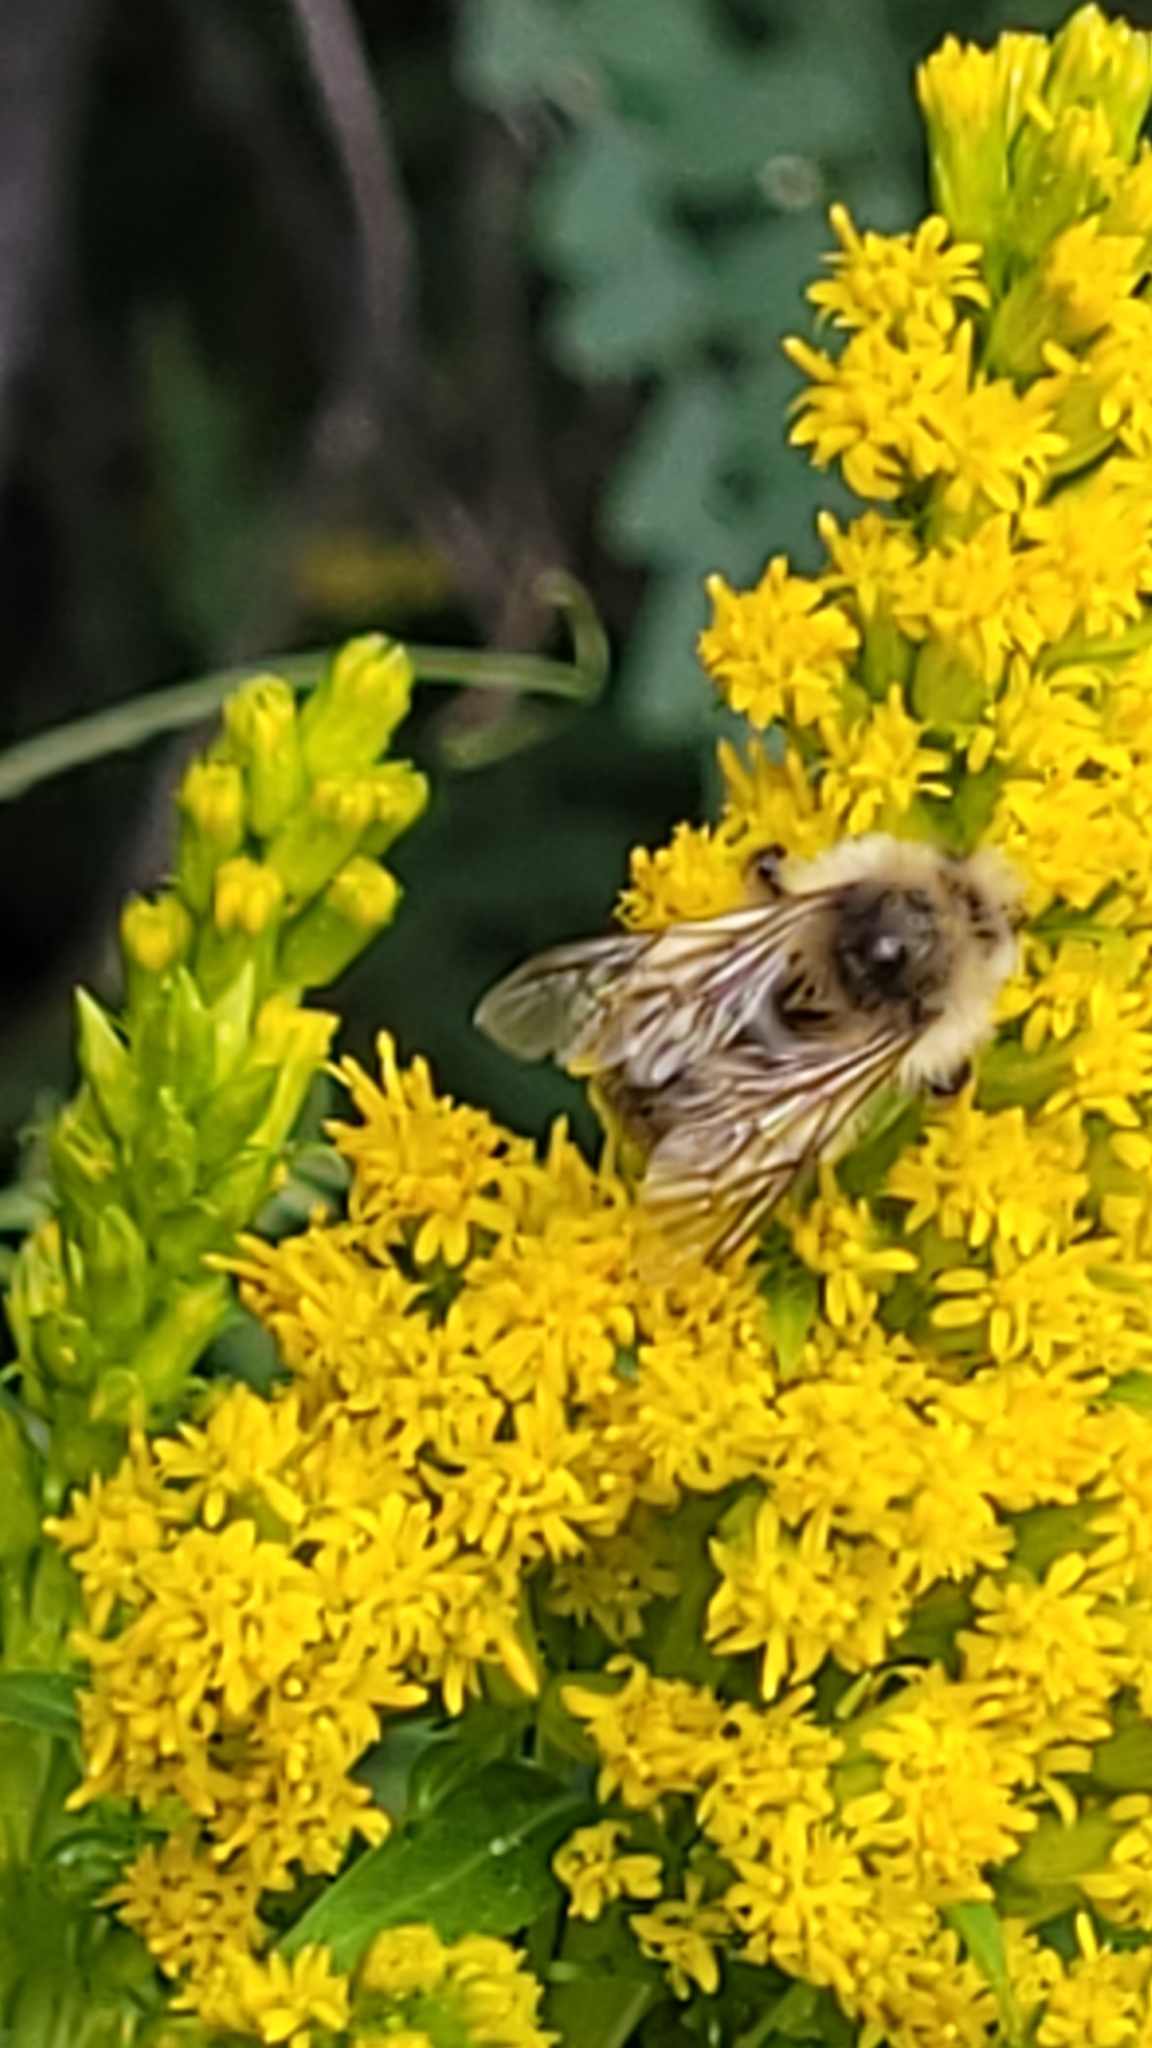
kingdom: Animalia
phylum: Arthropoda
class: Insecta
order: Hymenoptera
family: Apidae
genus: Bombus
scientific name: Bombus flavifrons
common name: Yellow head bumble bee
